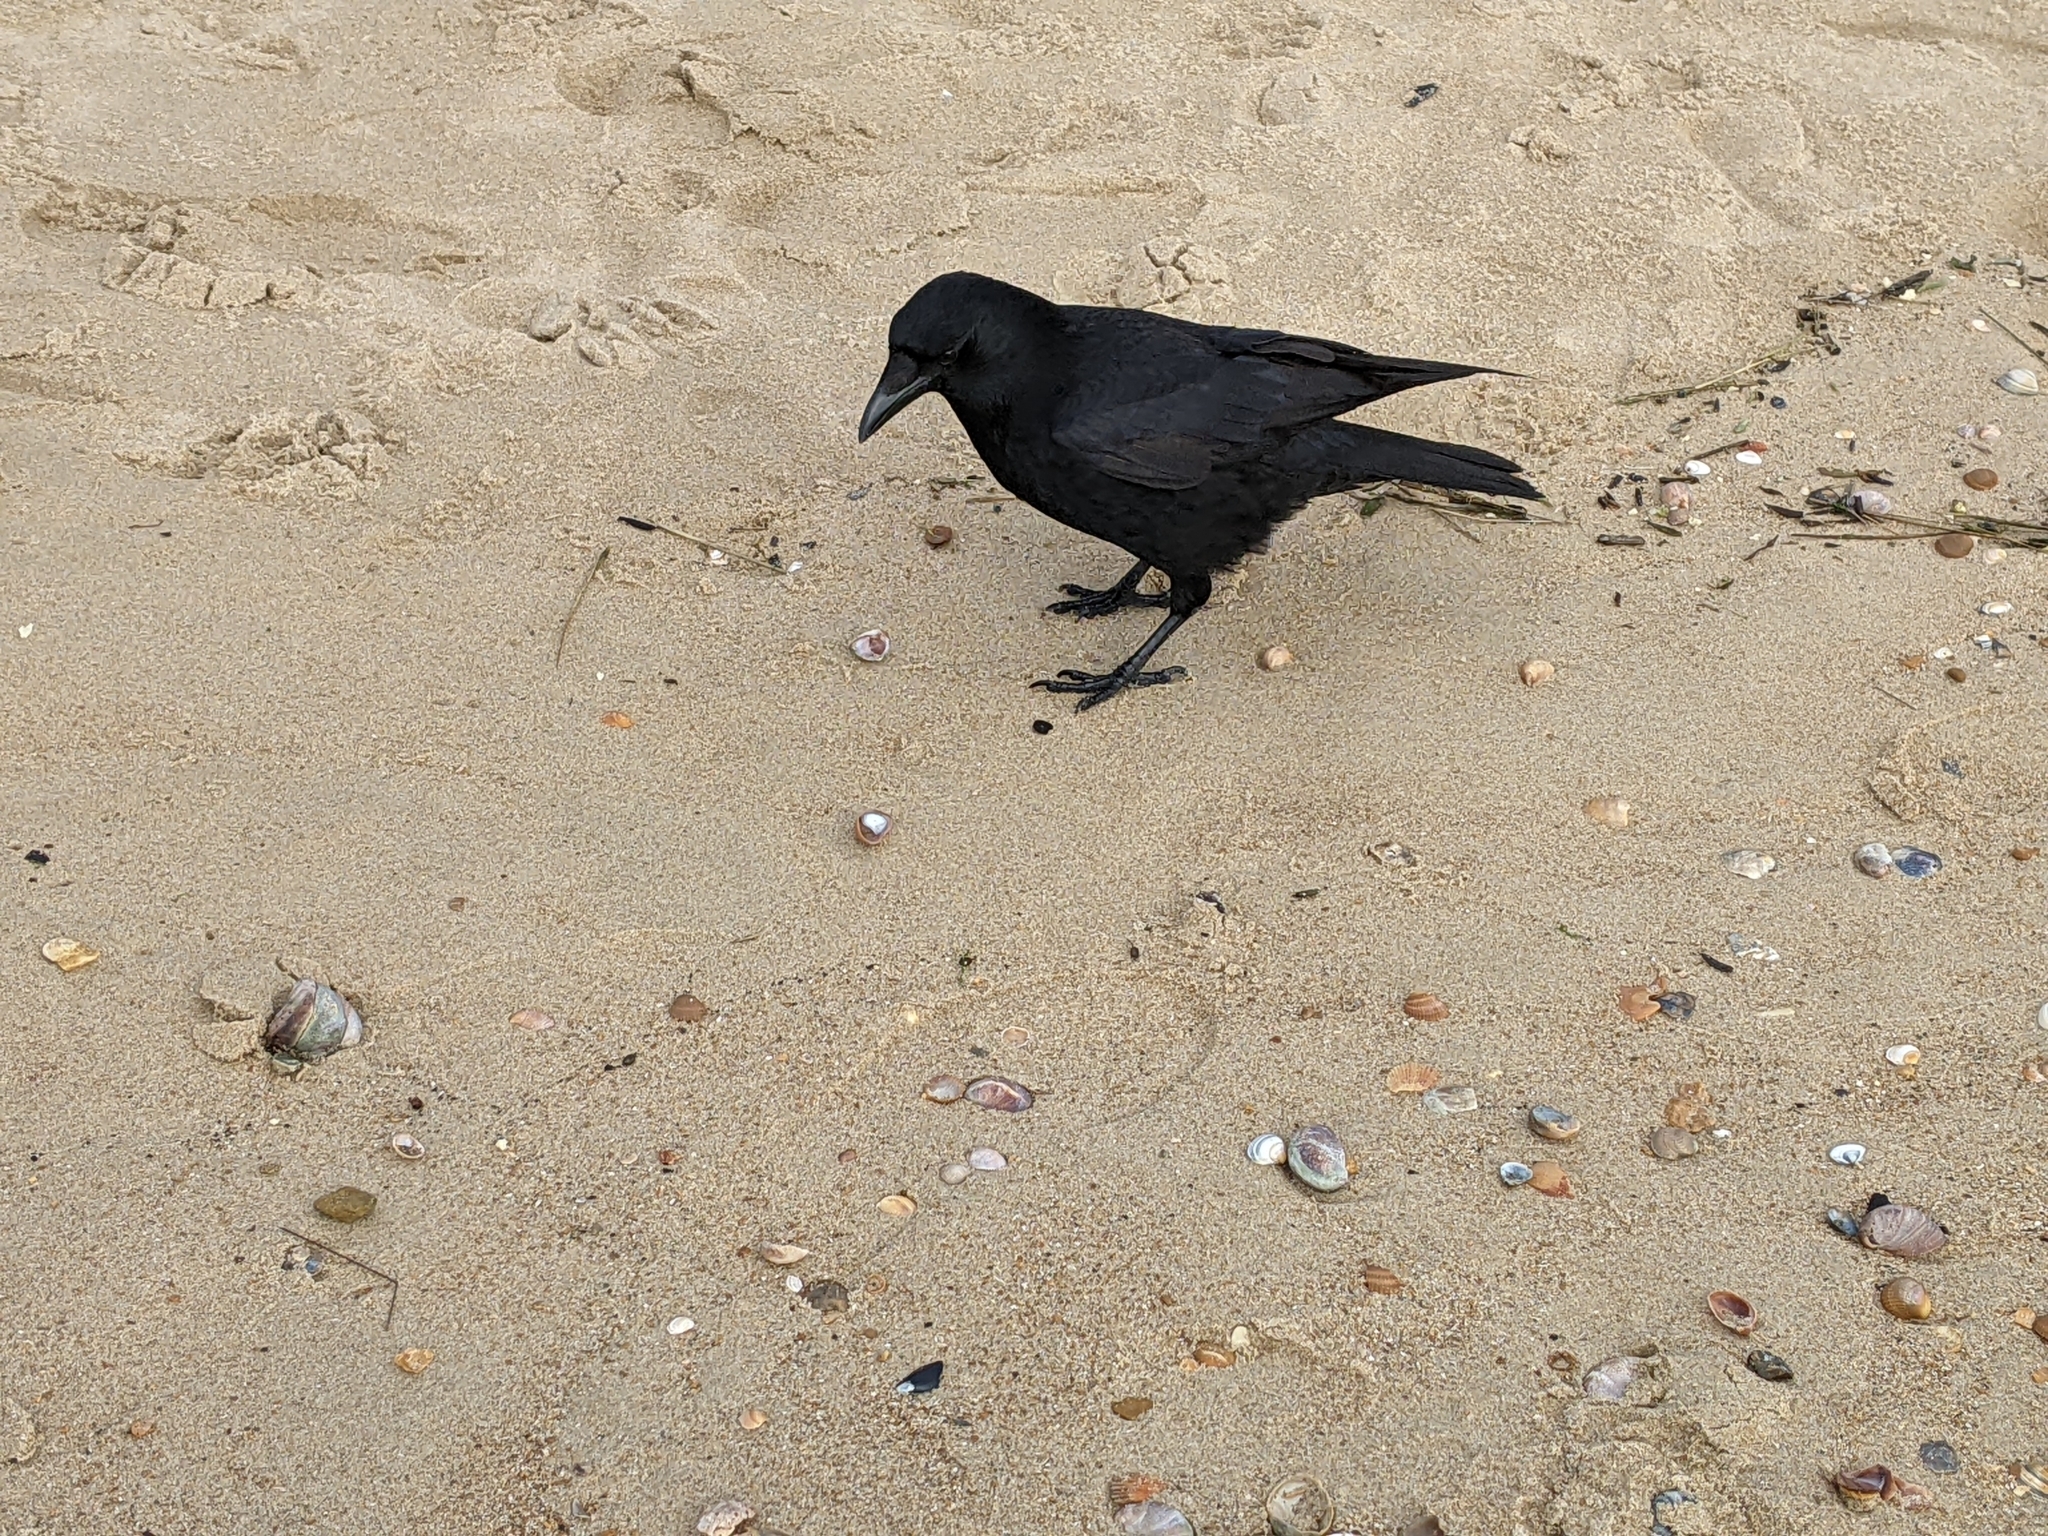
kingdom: Animalia
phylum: Chordata
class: Aves
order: Passeriformes
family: Corvidae
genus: Corvus
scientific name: Corvus corone
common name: Carrion crow
